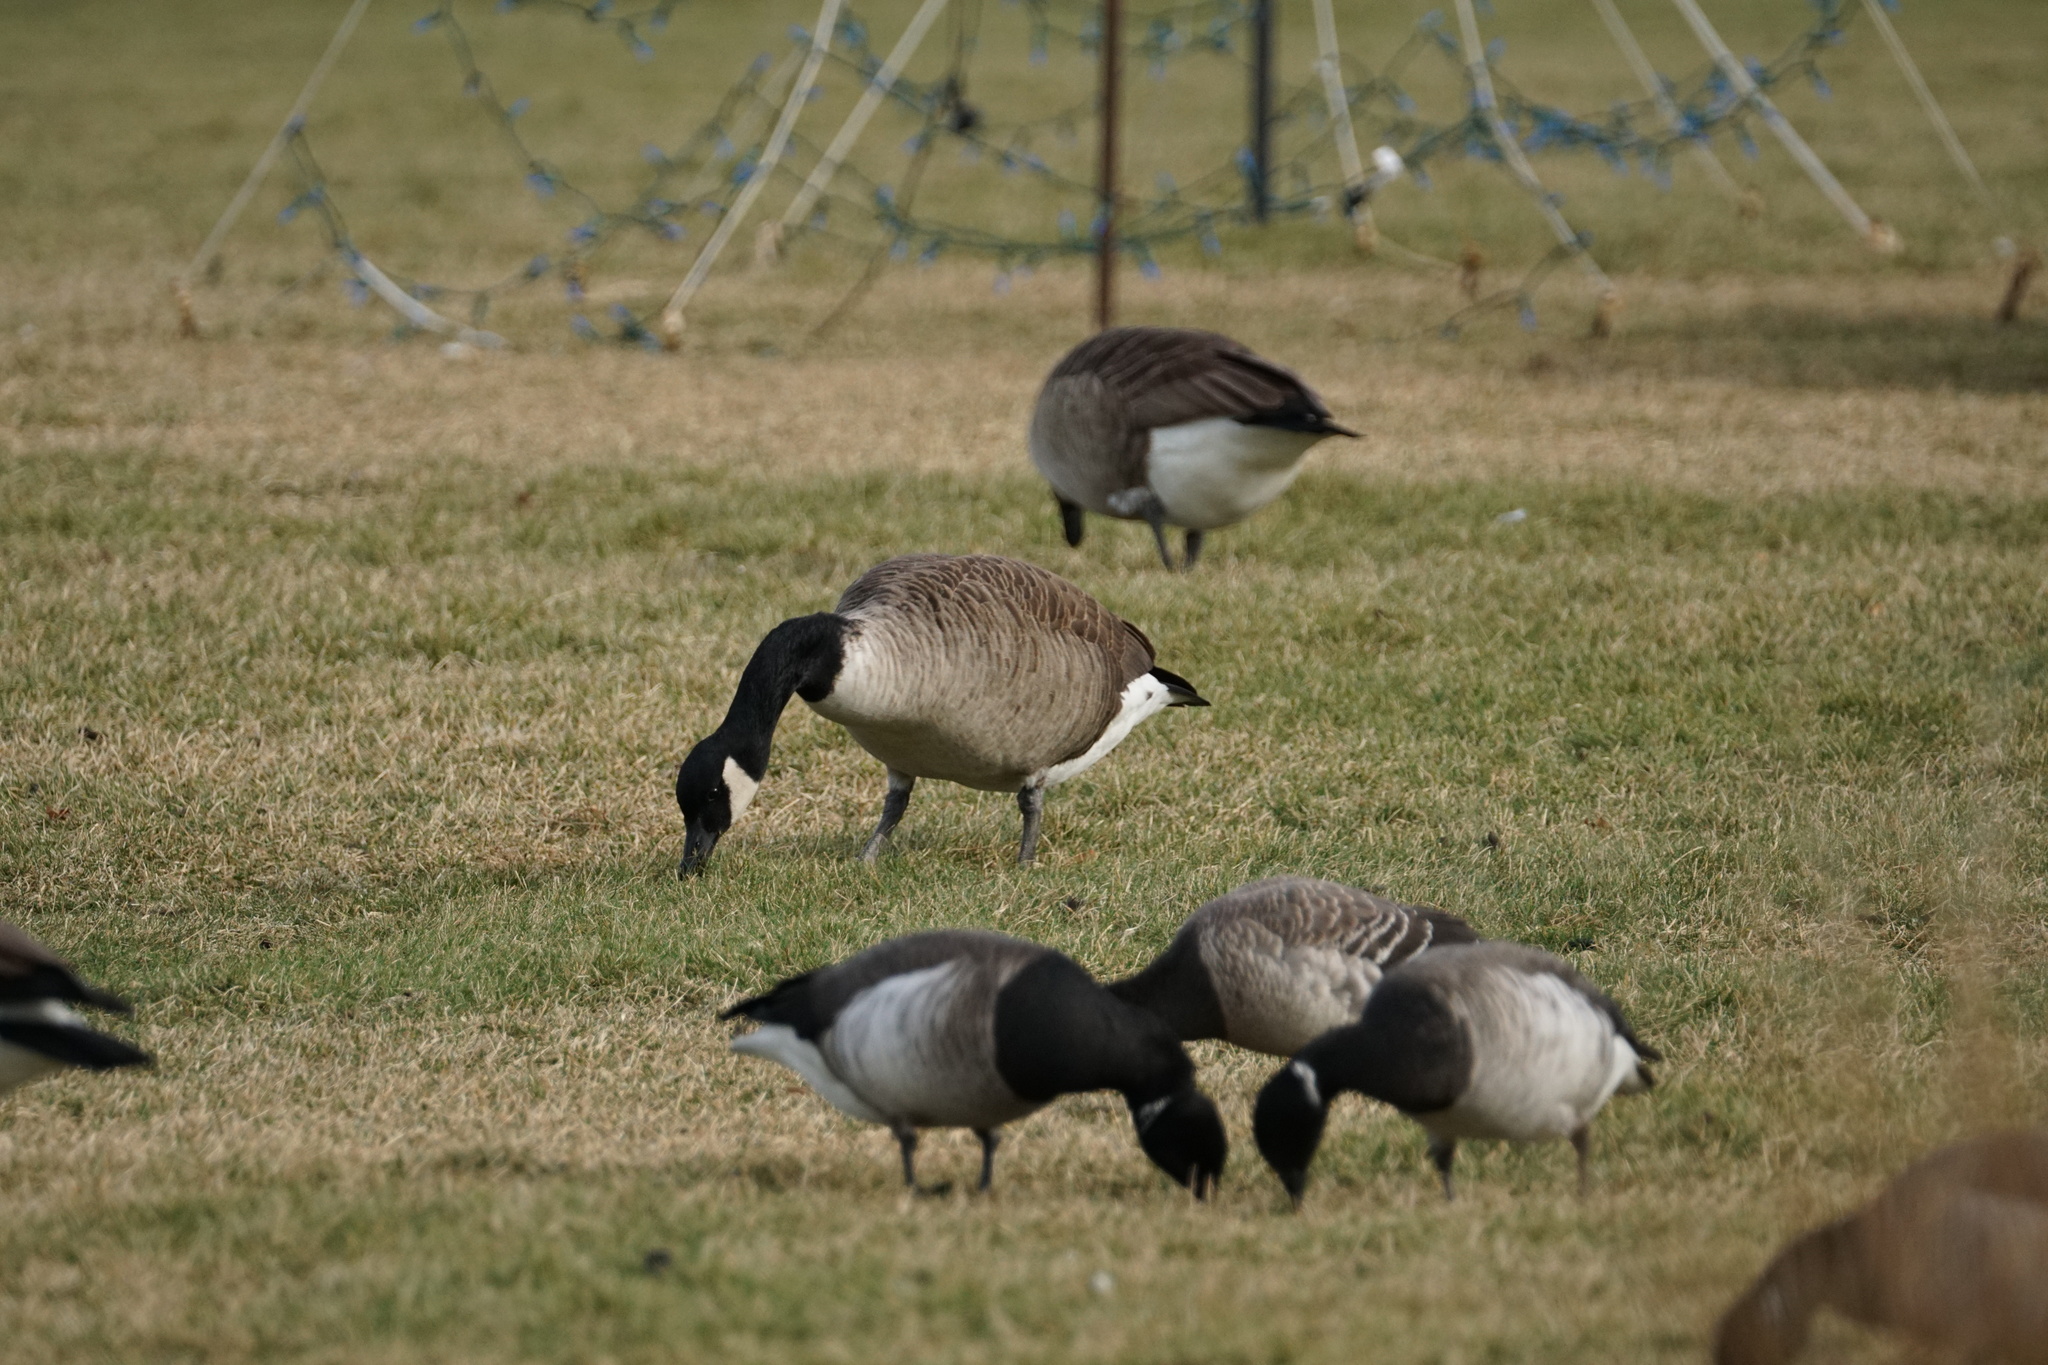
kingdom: Animalia
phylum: Chordata
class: Aves
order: Anseriformes
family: Anatidae
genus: Branta
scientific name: Branta canadensis
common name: Canada goose
